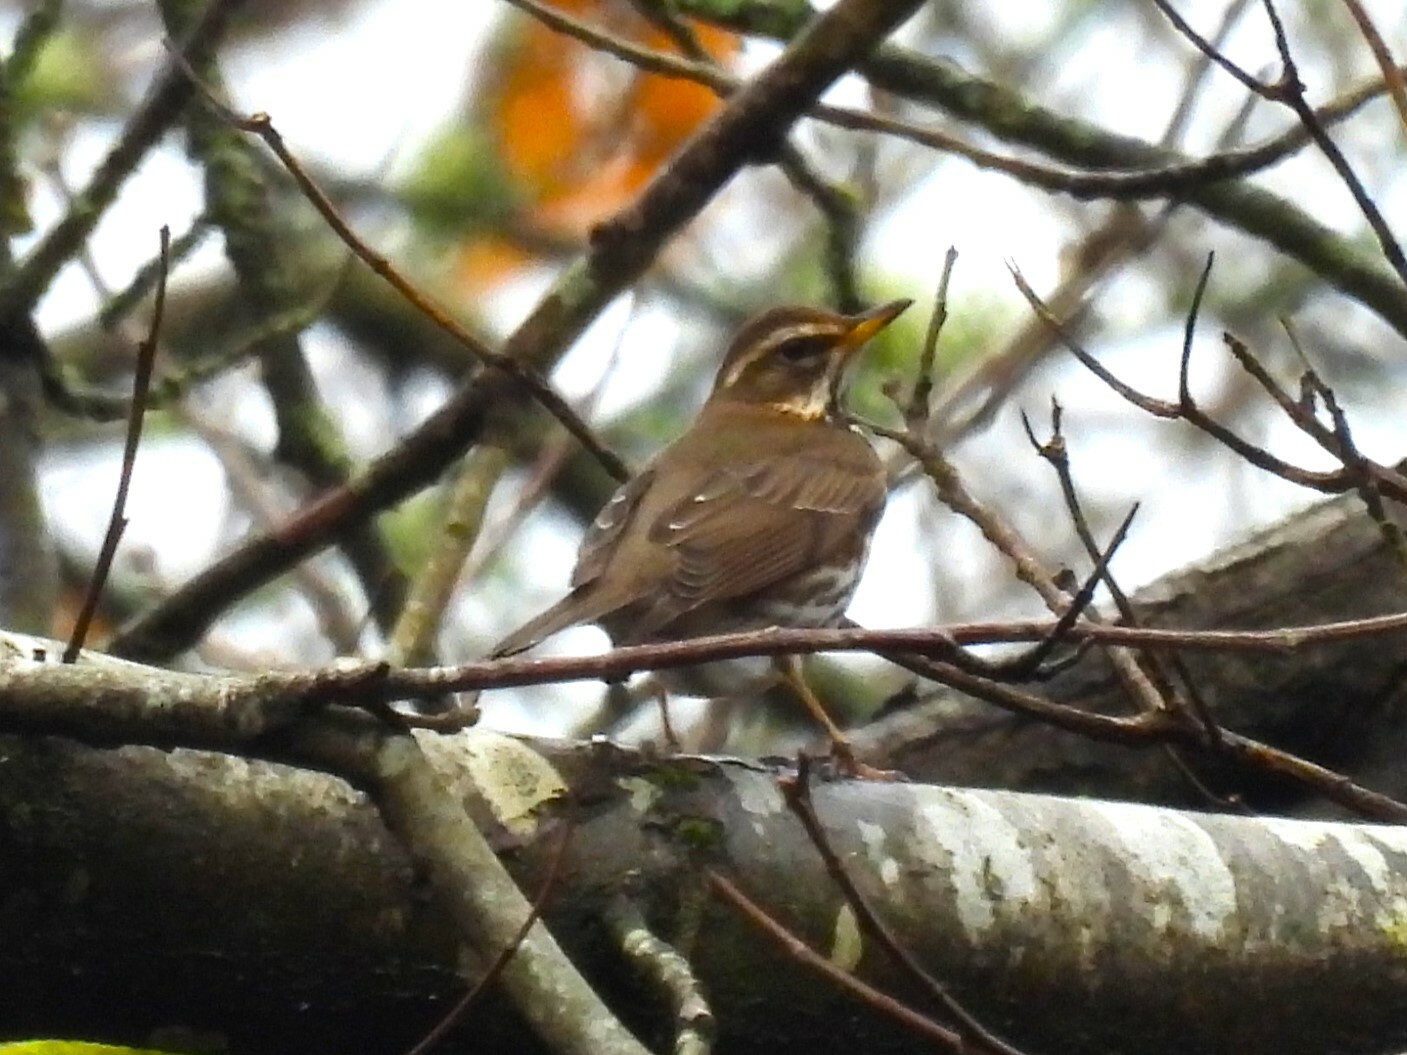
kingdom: Animalia
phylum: Chordata
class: Aves
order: Passeriformes
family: Turdidae
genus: Turdus
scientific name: Turdus iliacus
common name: Redwing
